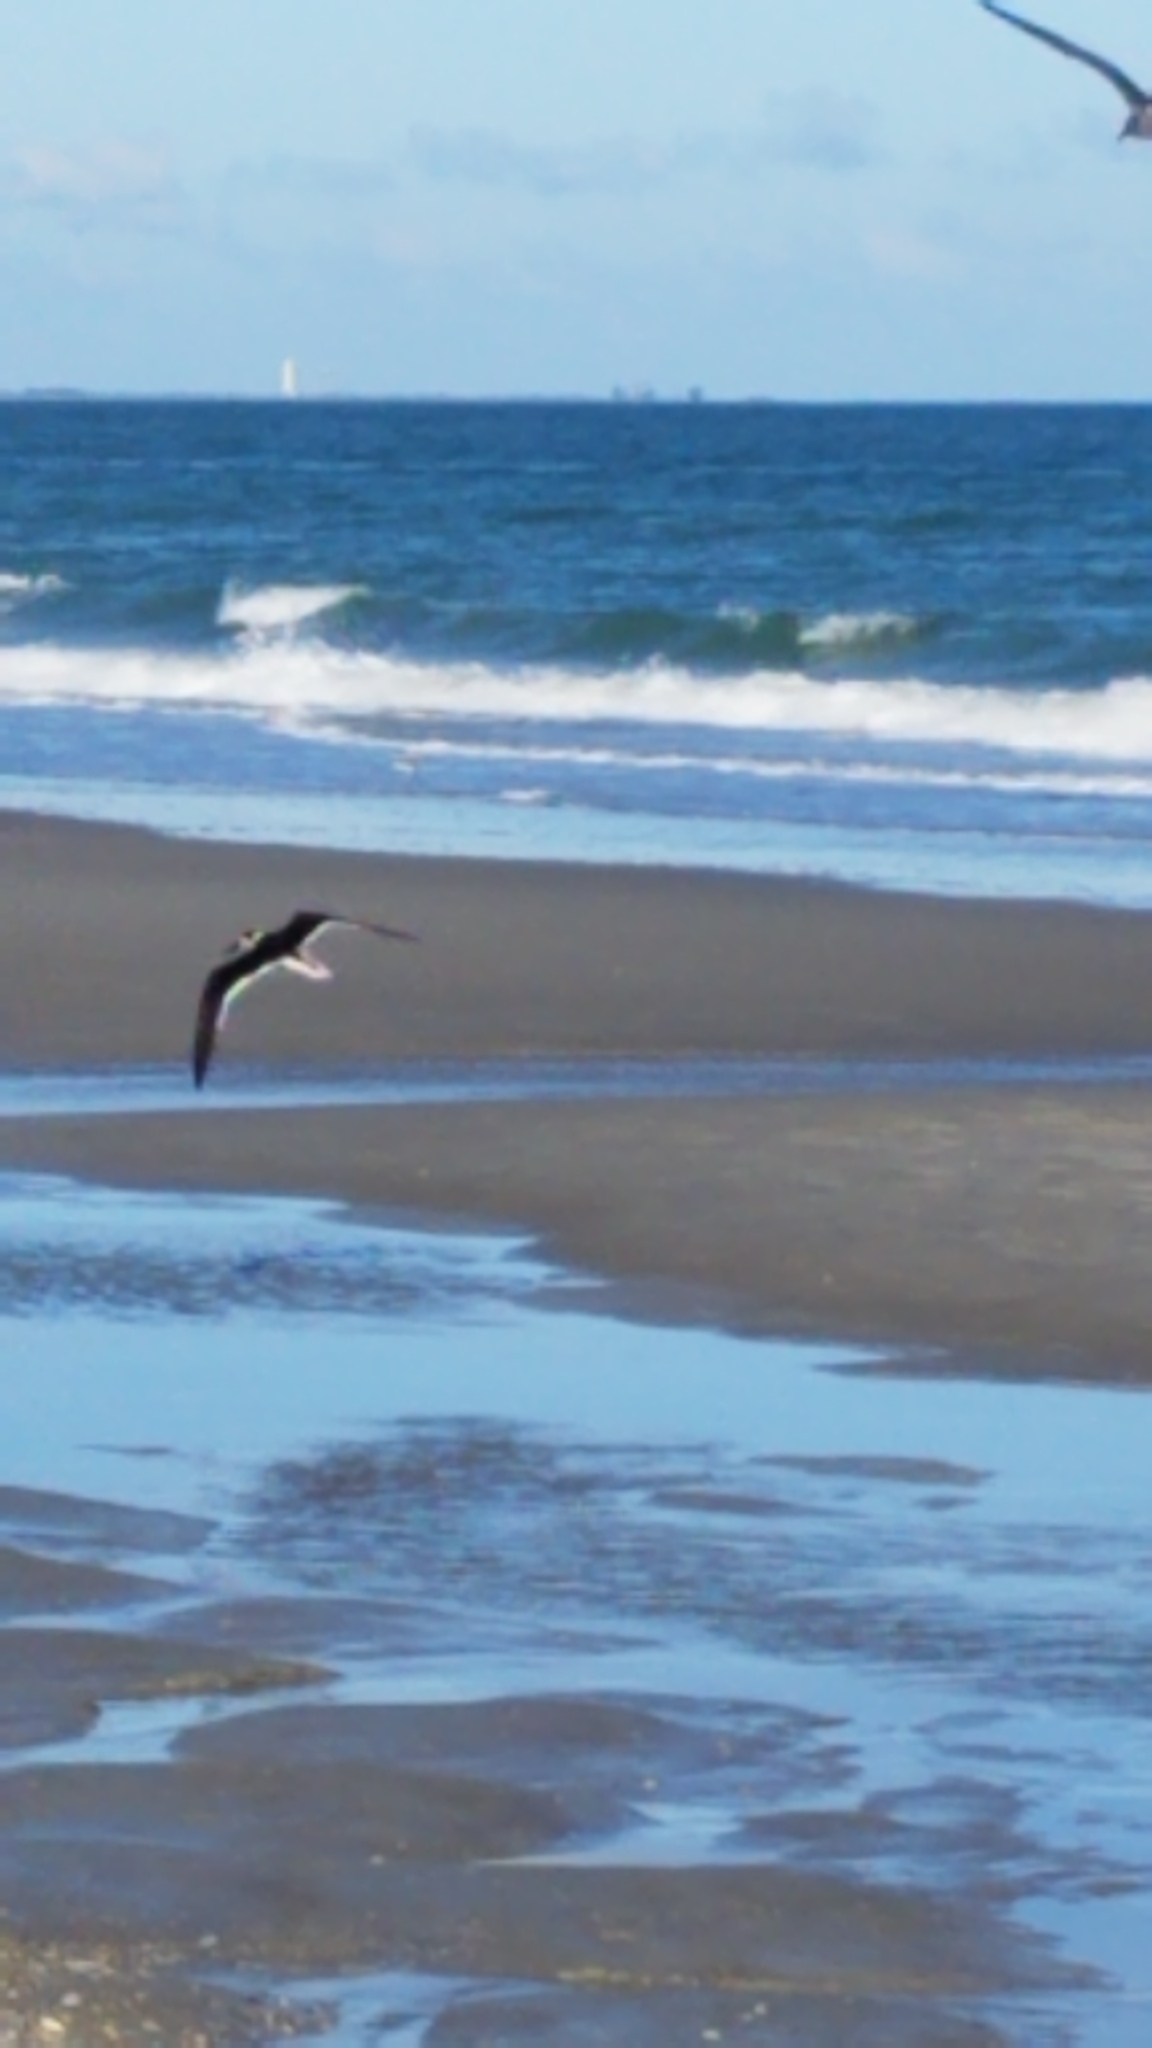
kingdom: Animalia
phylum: Chordata
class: Aves
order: Charadriiformes
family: Laridae
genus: Rynchops
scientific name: Rynchops niger
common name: Black skimmer
